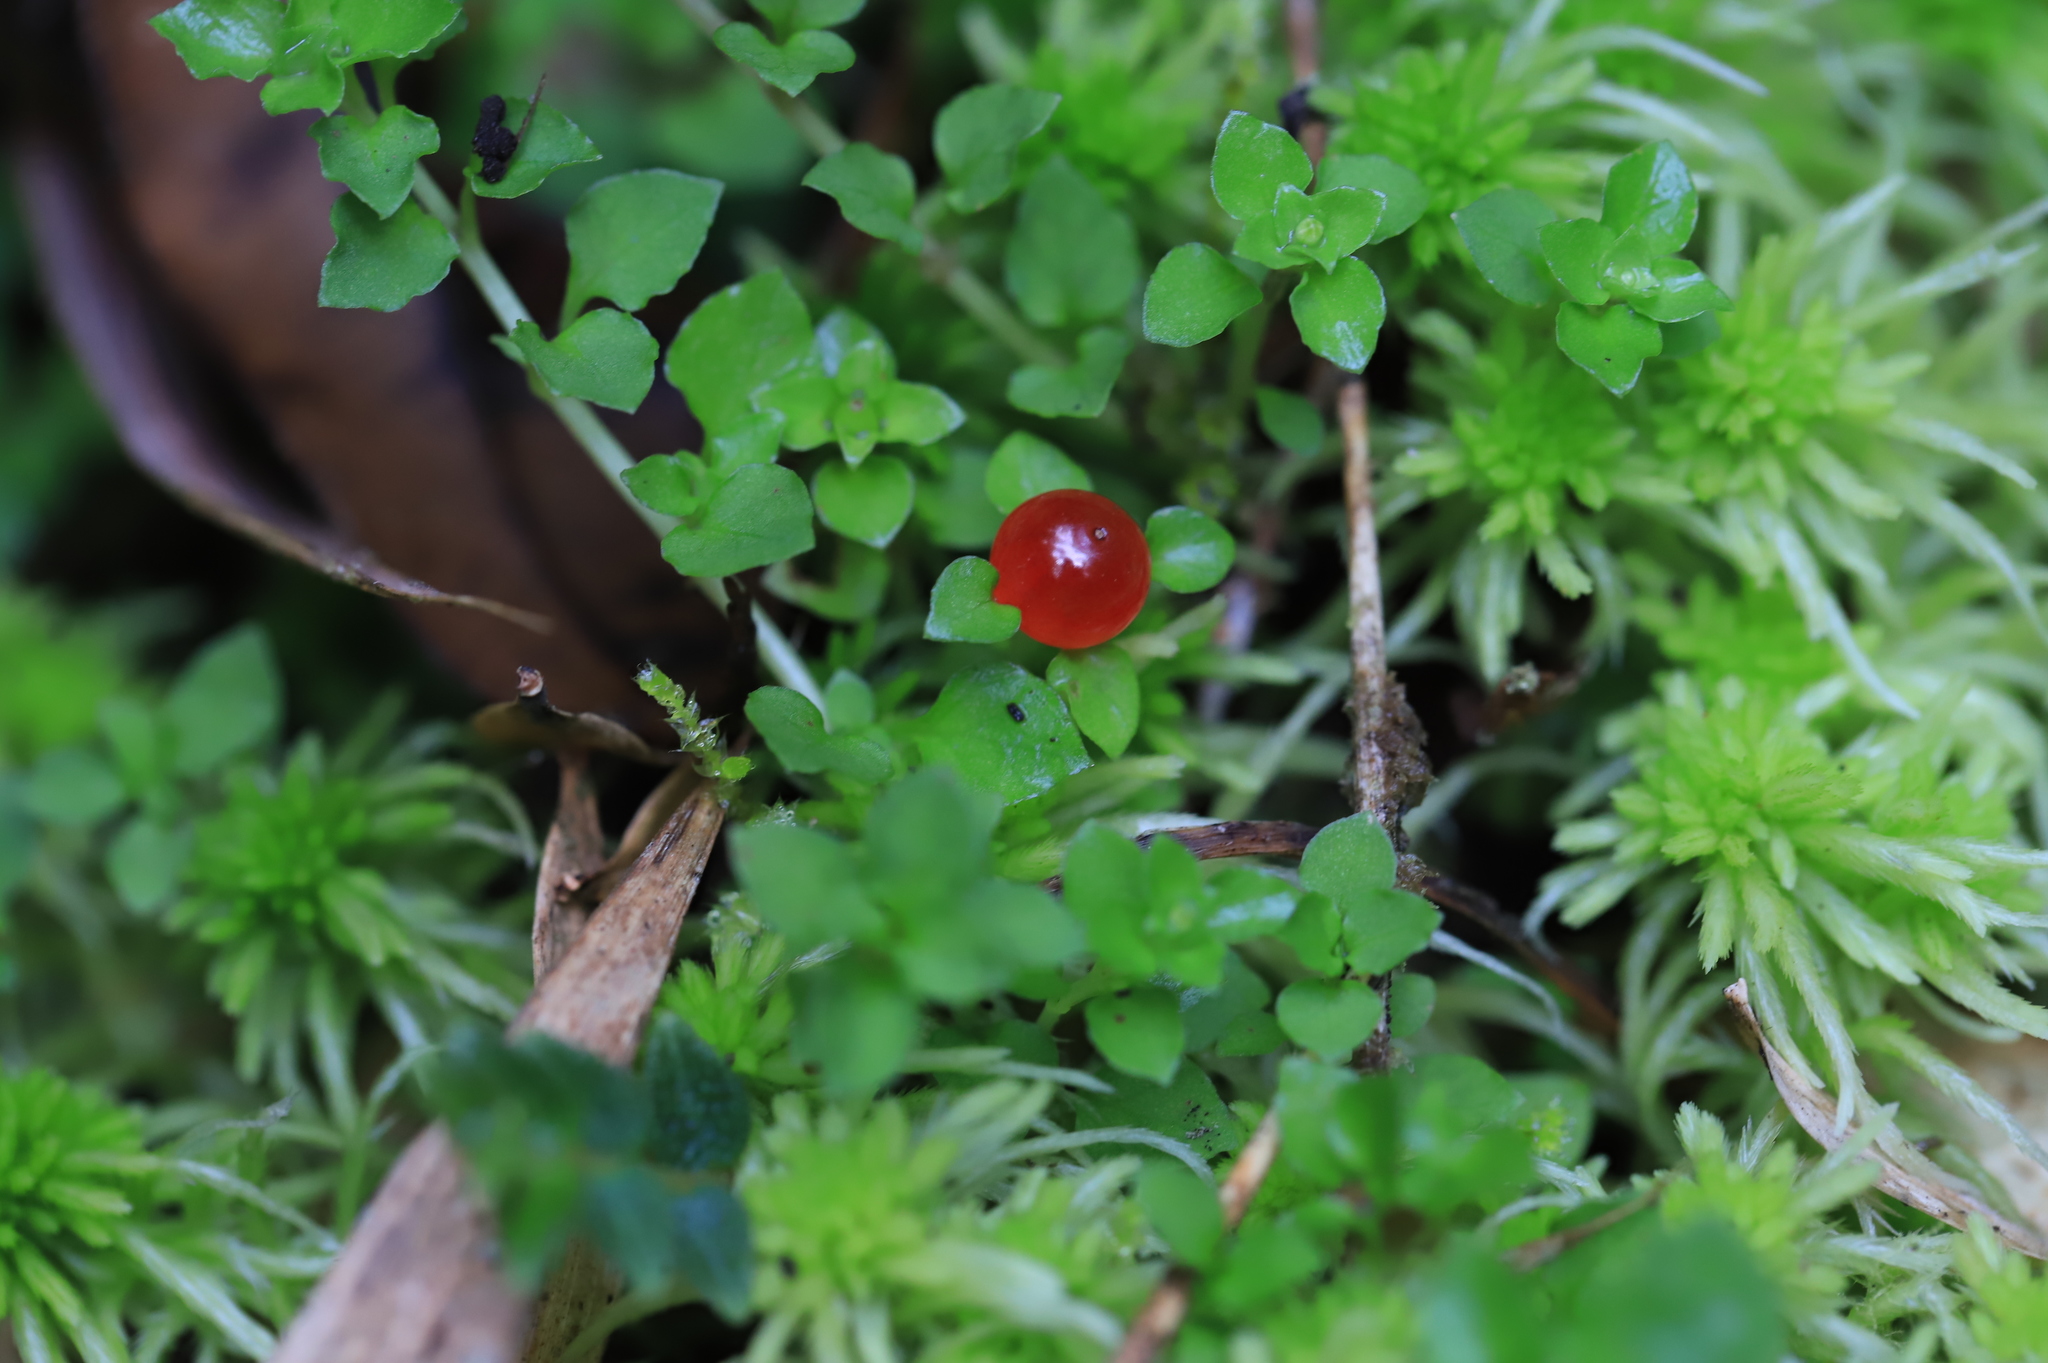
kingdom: Plantae
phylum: Tracheophyta
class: Magnoliopsida
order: Gentianales
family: Rubiaceae
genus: Nertera
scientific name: Nertera granadensis
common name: Beadplant
